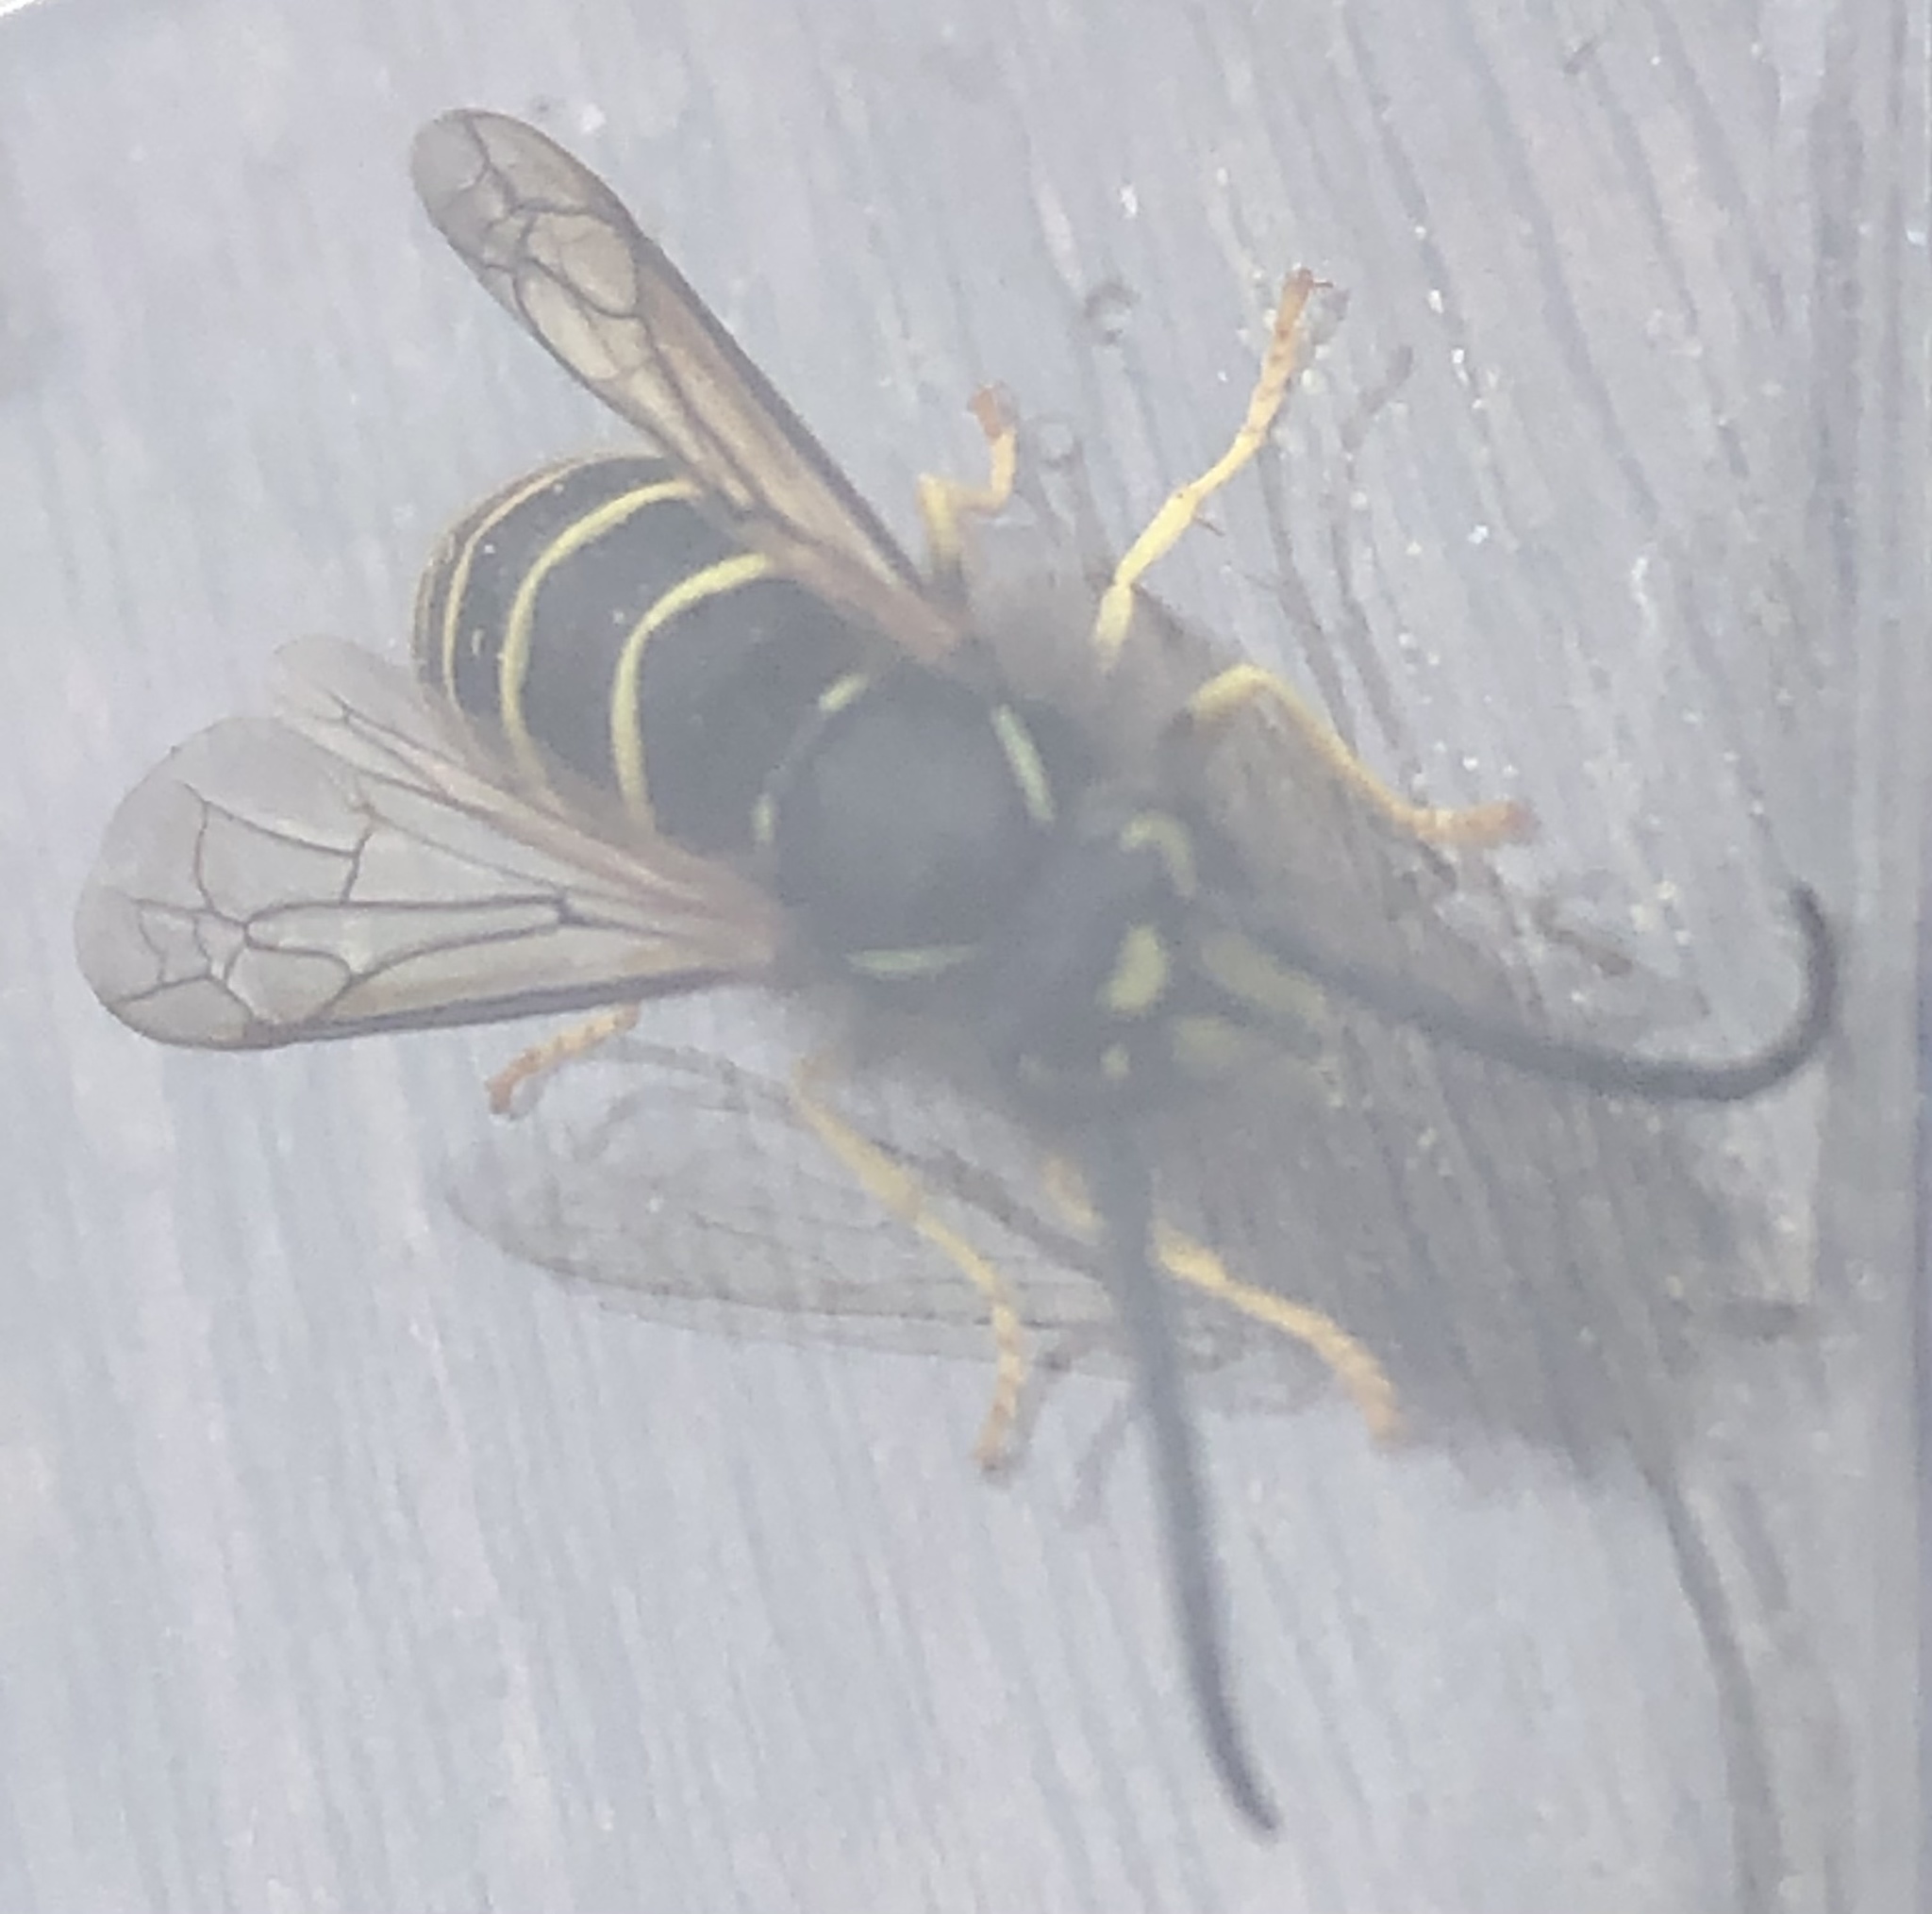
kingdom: Animalia
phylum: Arthropoda
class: Insecta
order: Hymenoptera
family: Vespidae
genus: Vespula
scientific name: Vespula alascensis
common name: Alaska yellowjacket
